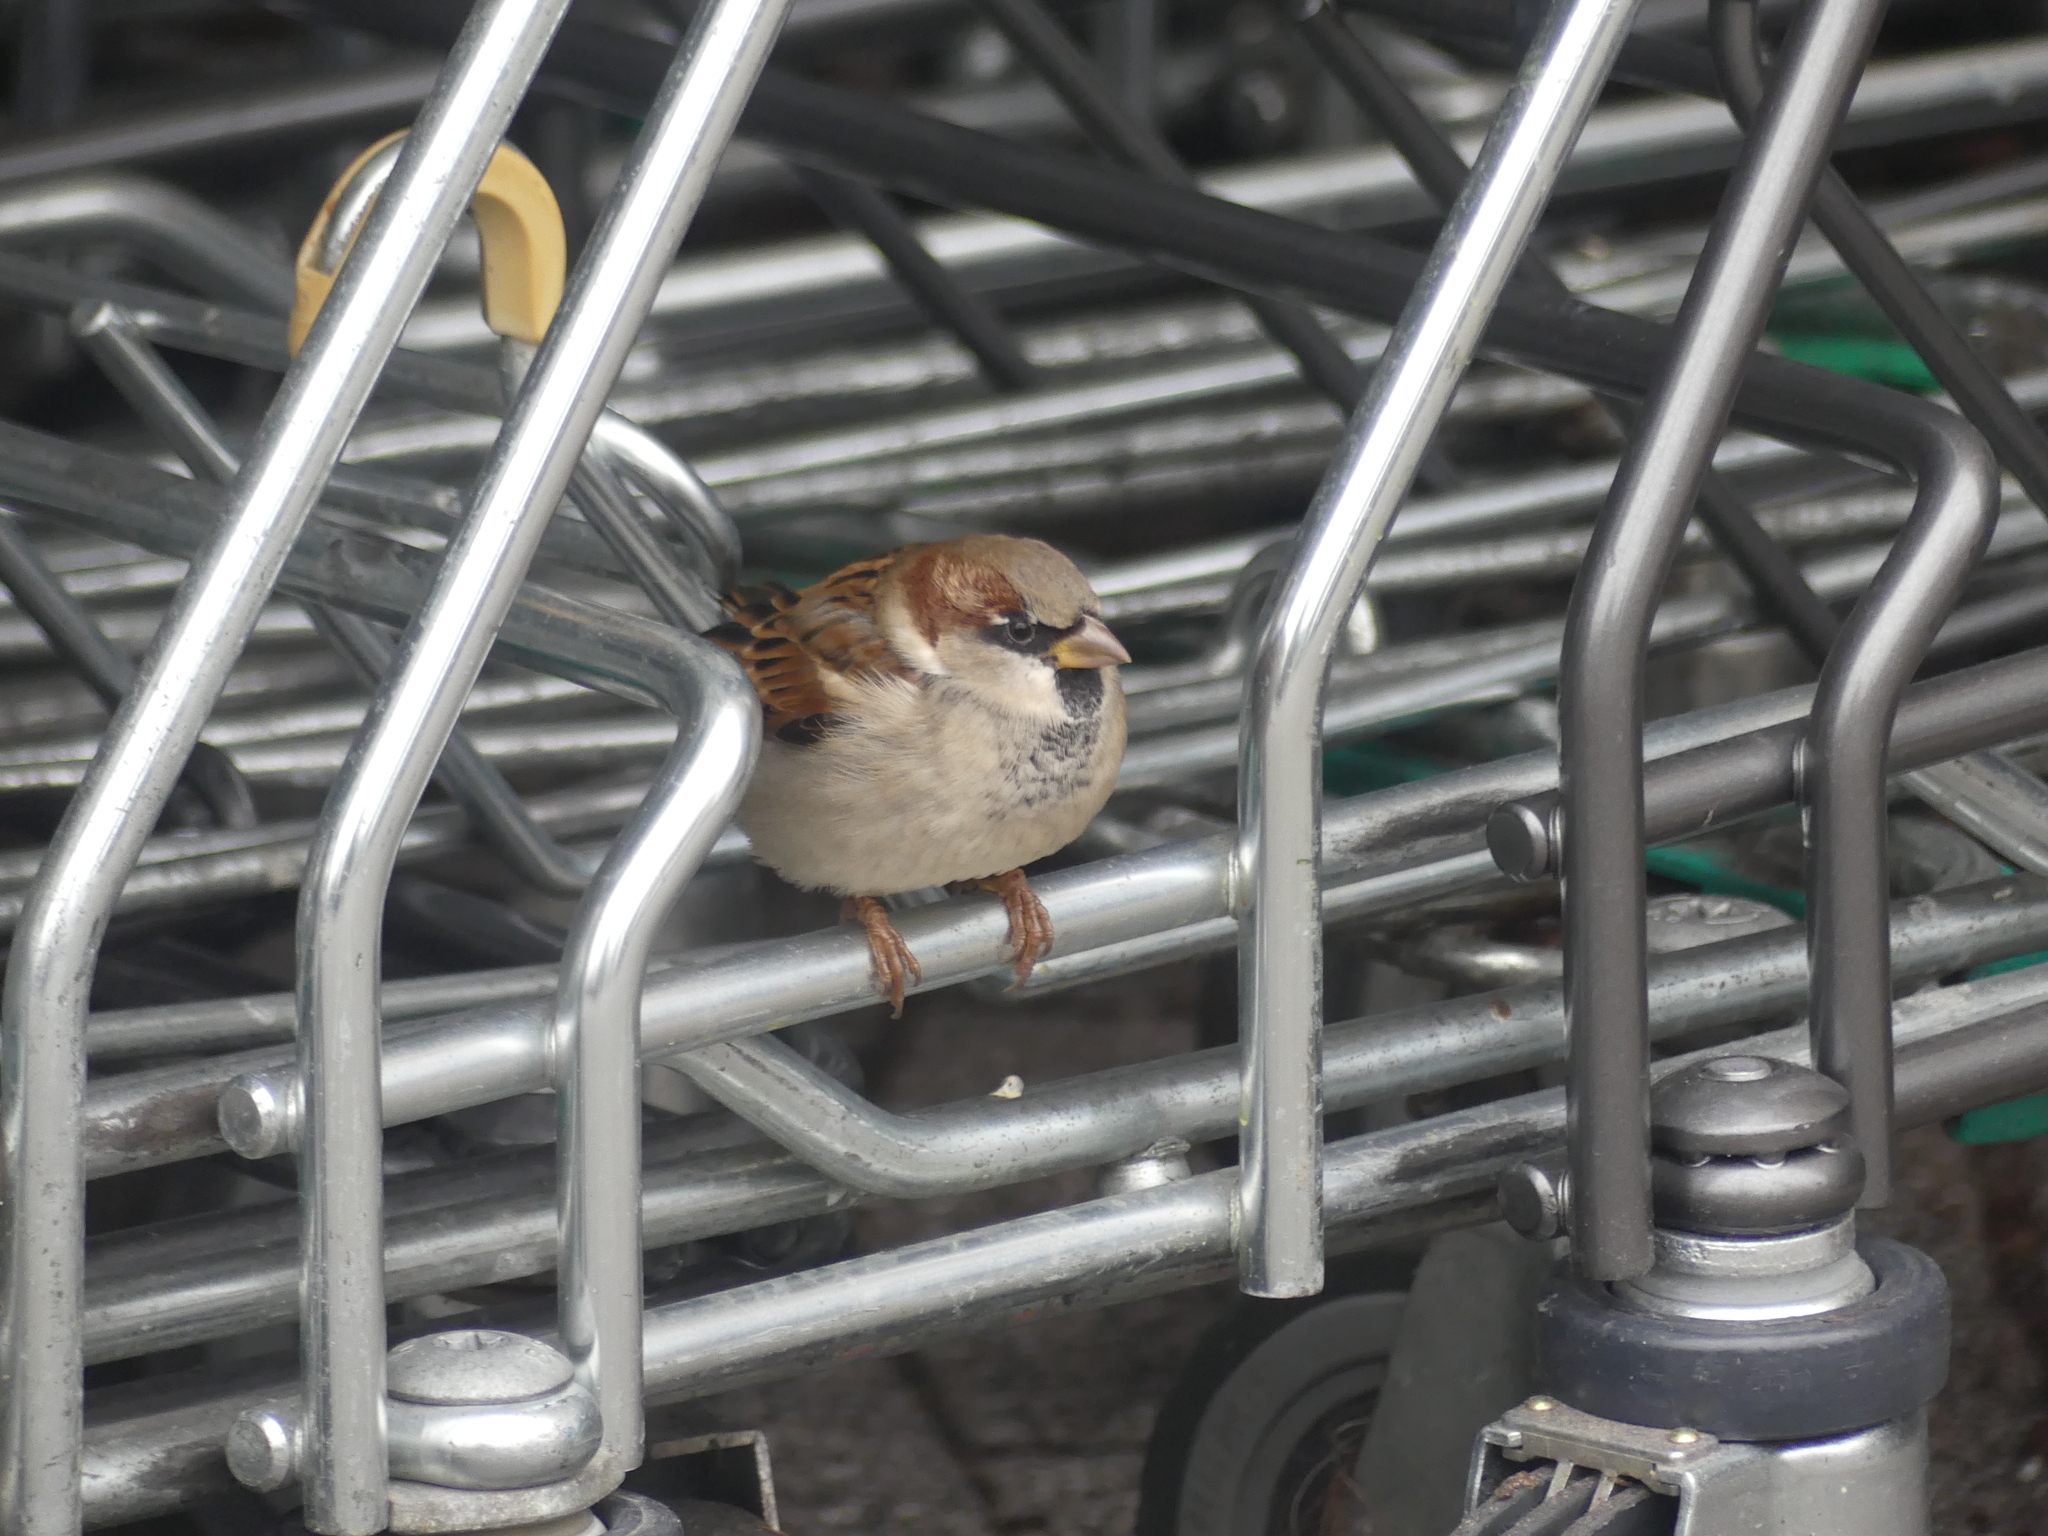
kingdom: Animalia
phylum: Chordata
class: Aves
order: Passeriformes
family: Passeridae
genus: Passer
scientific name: Passer domesticus
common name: House sparrow
